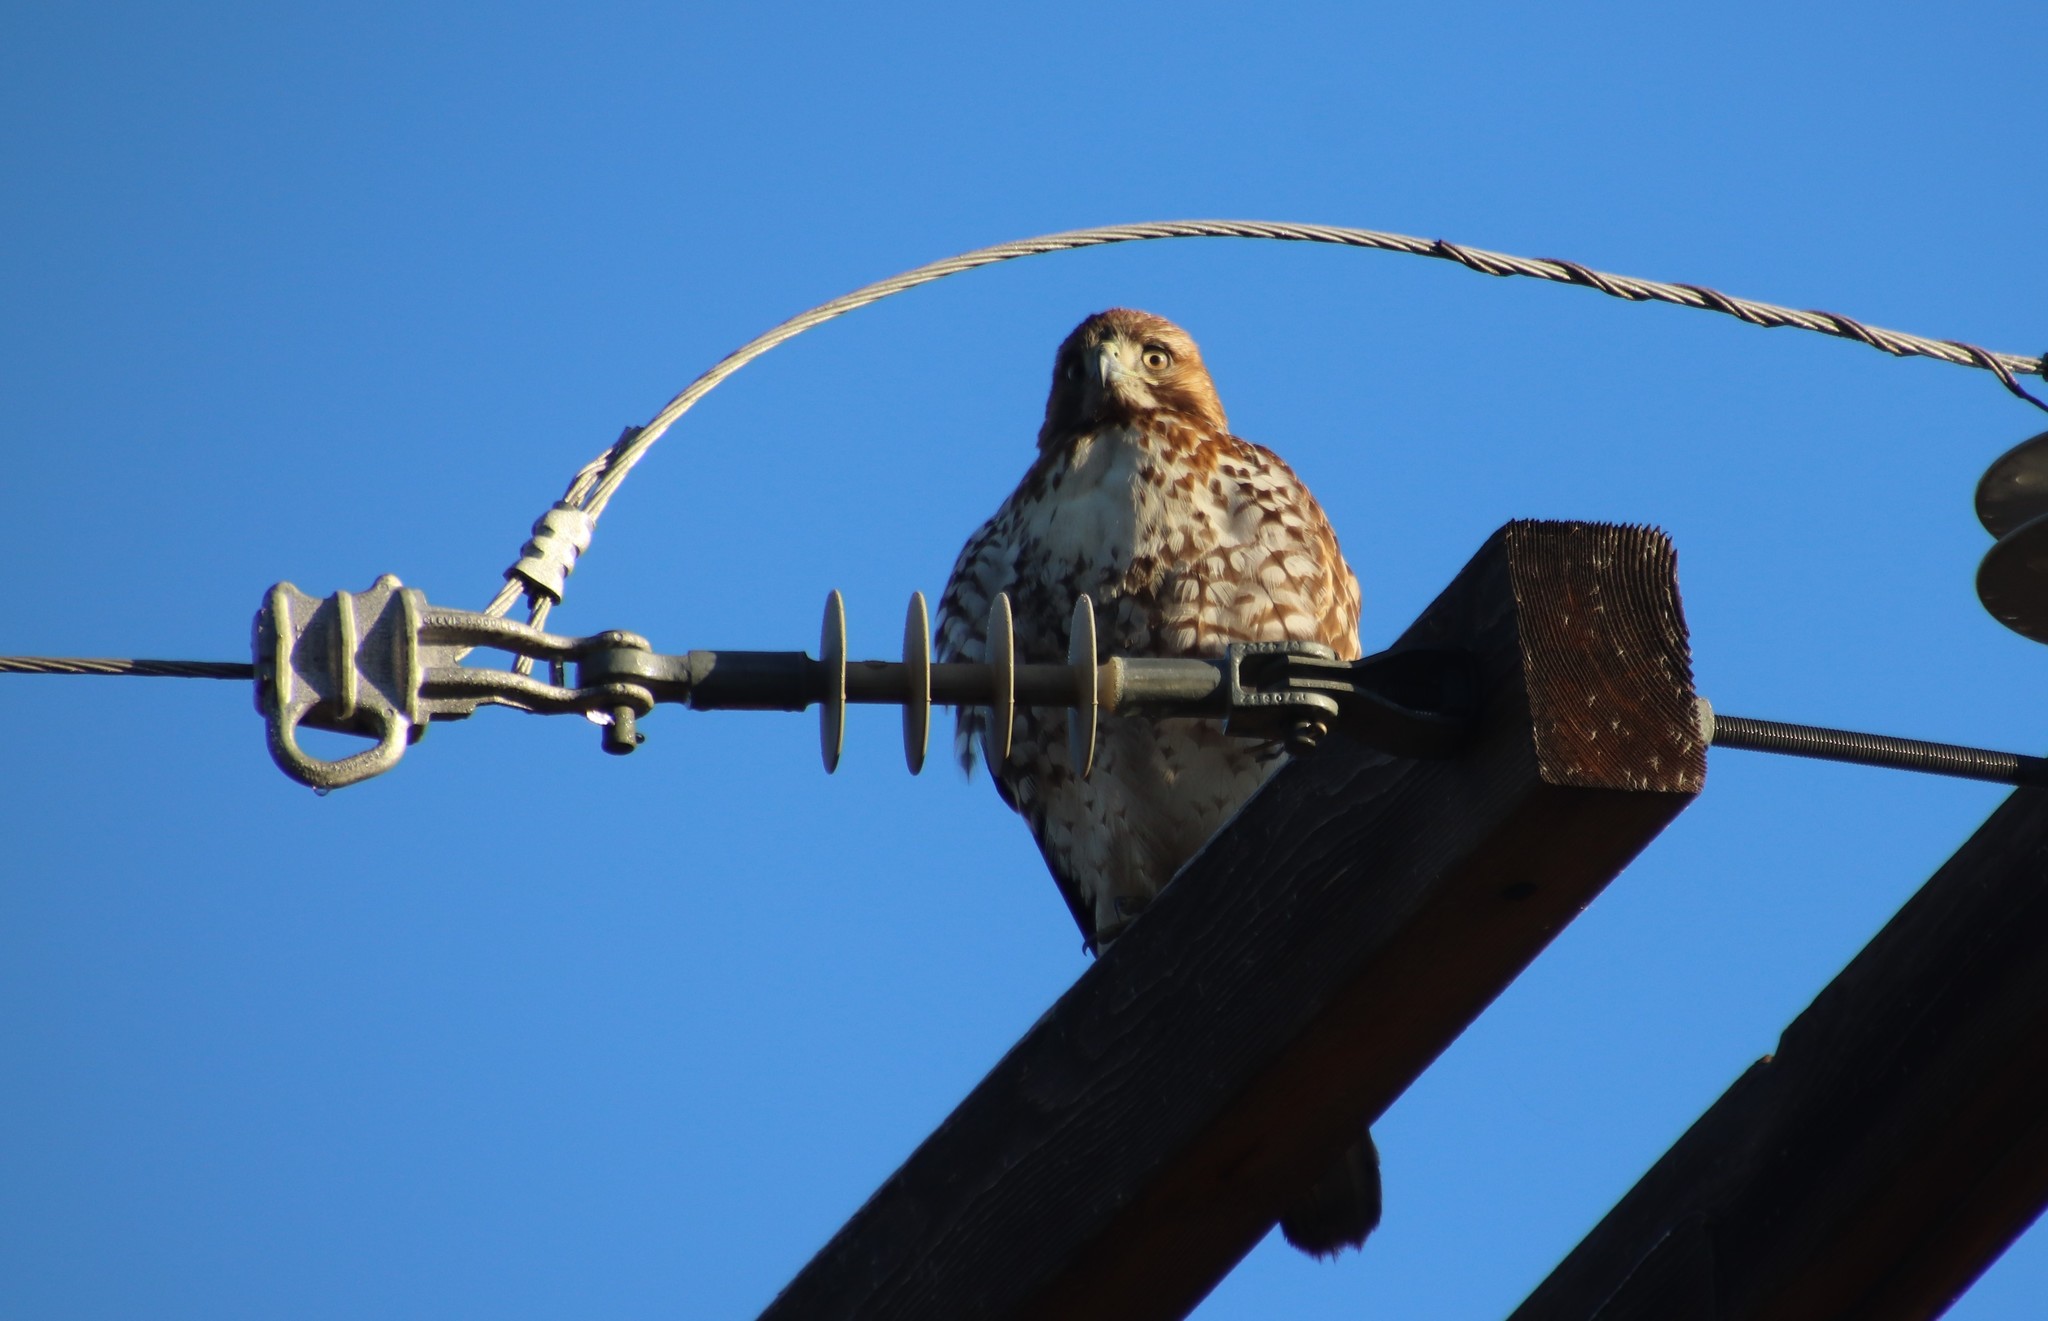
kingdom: Animalia
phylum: Chordata
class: Aves
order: Accipitriformes
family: Accipitridae
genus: Buteo
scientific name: Buteo jamaicensis
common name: Red-tailed hawk
